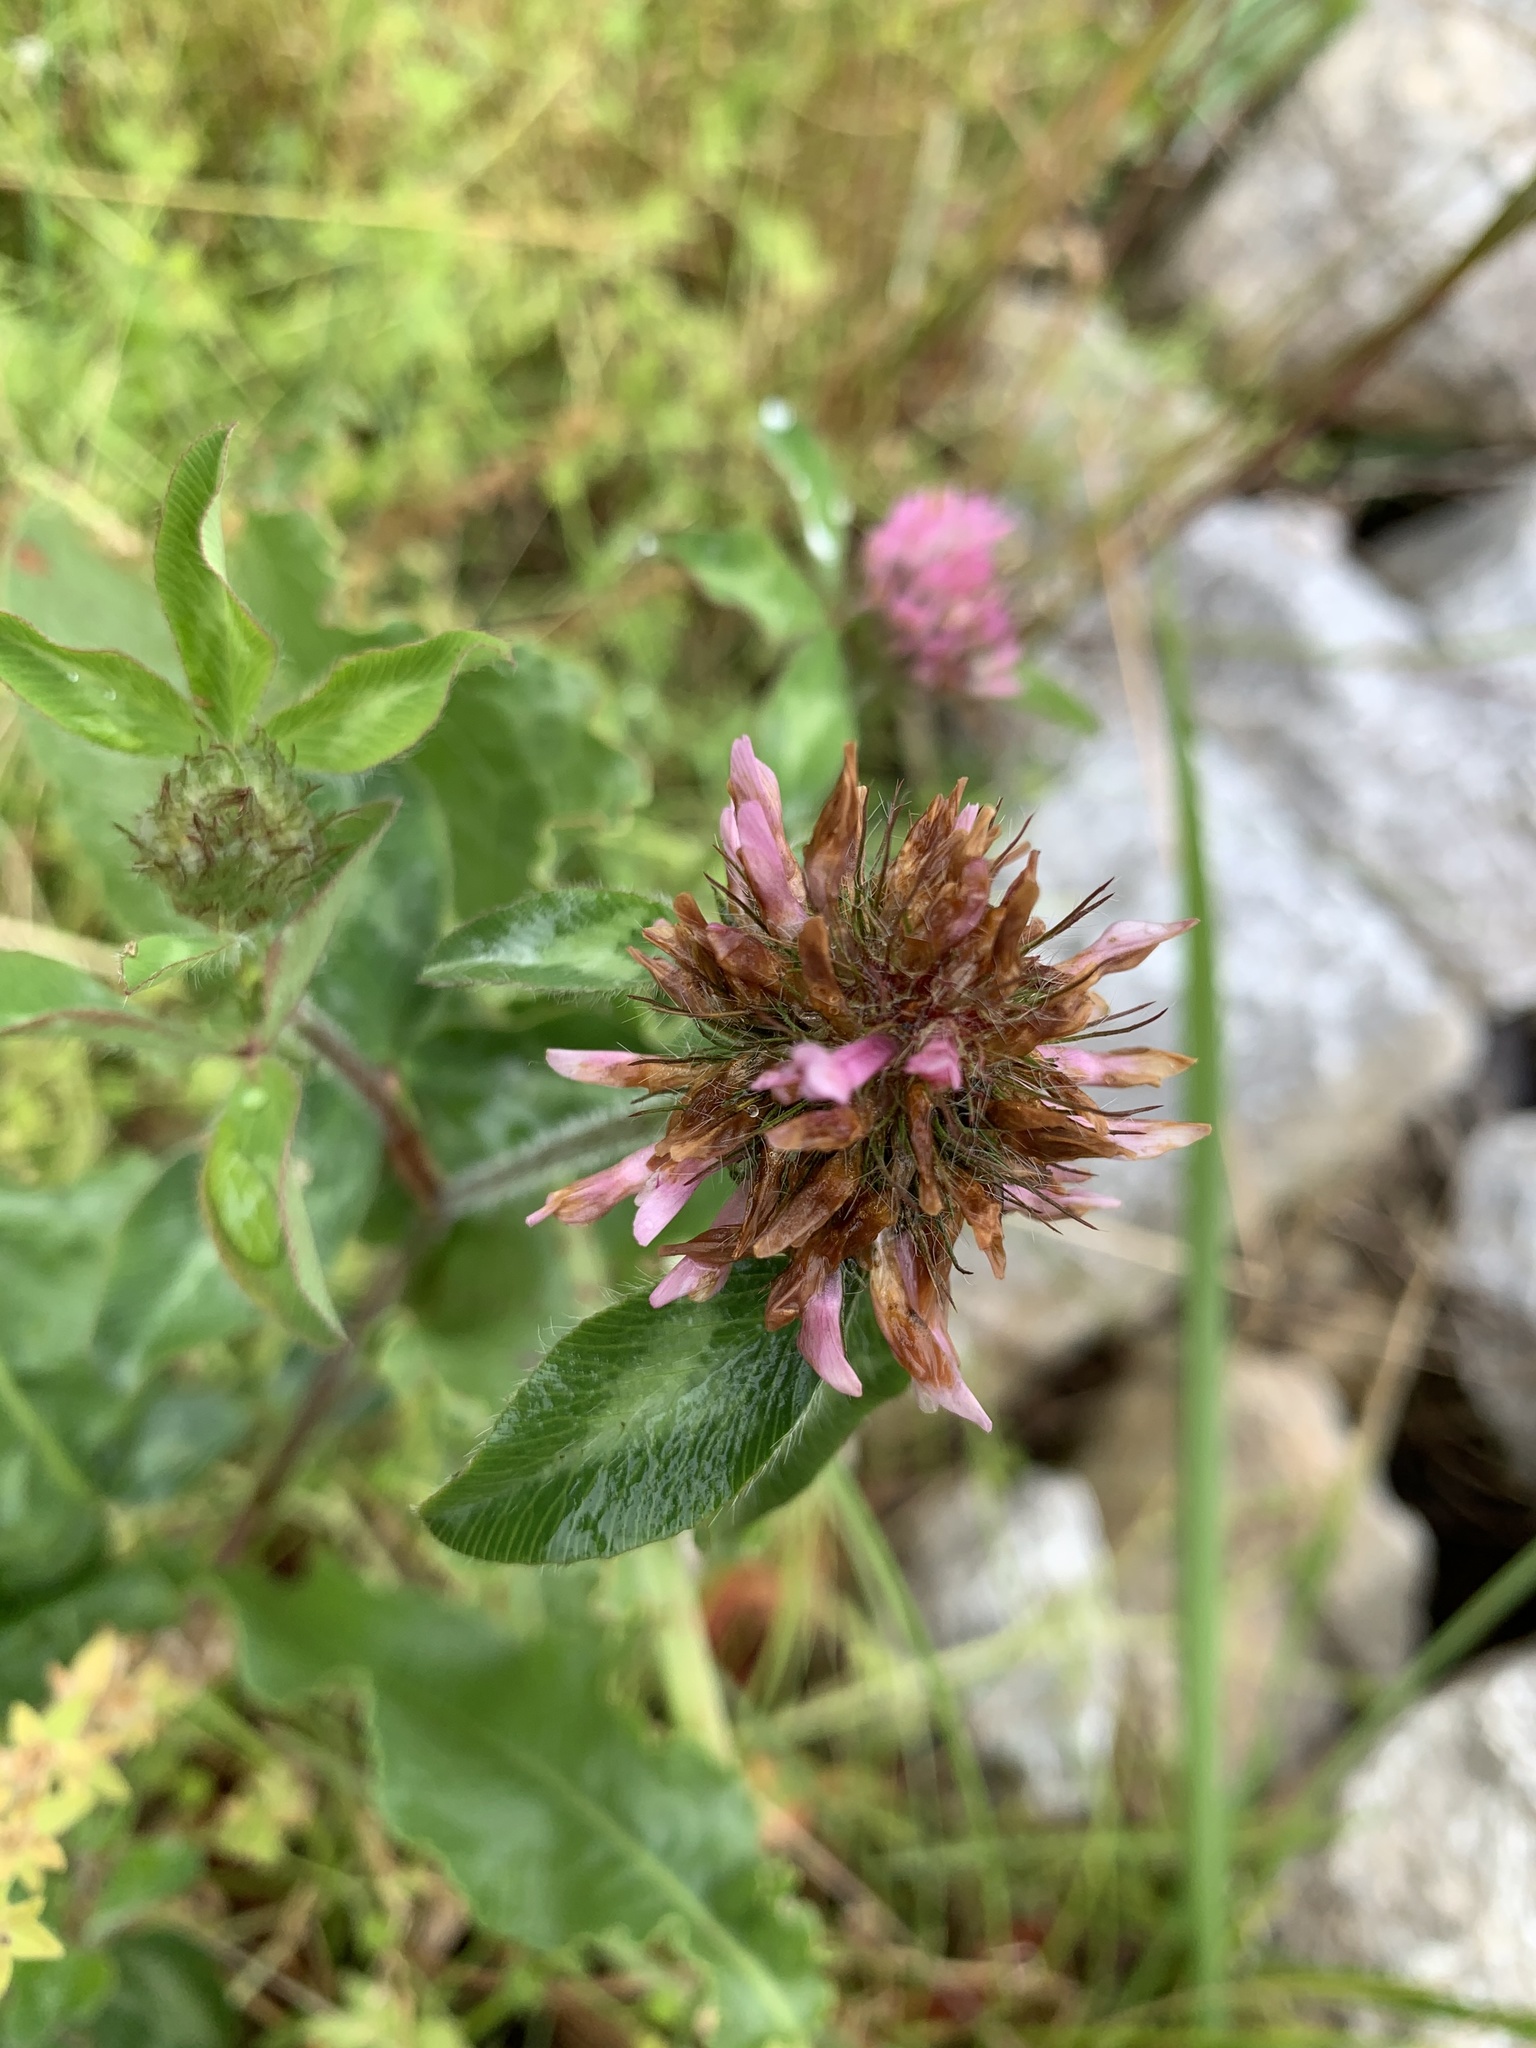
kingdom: Plantae
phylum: Tracheophyta
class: Magnoliopsida
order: Fabales
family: Fabaceae
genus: Trifolium
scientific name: Trifolium pratense
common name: Red clover
